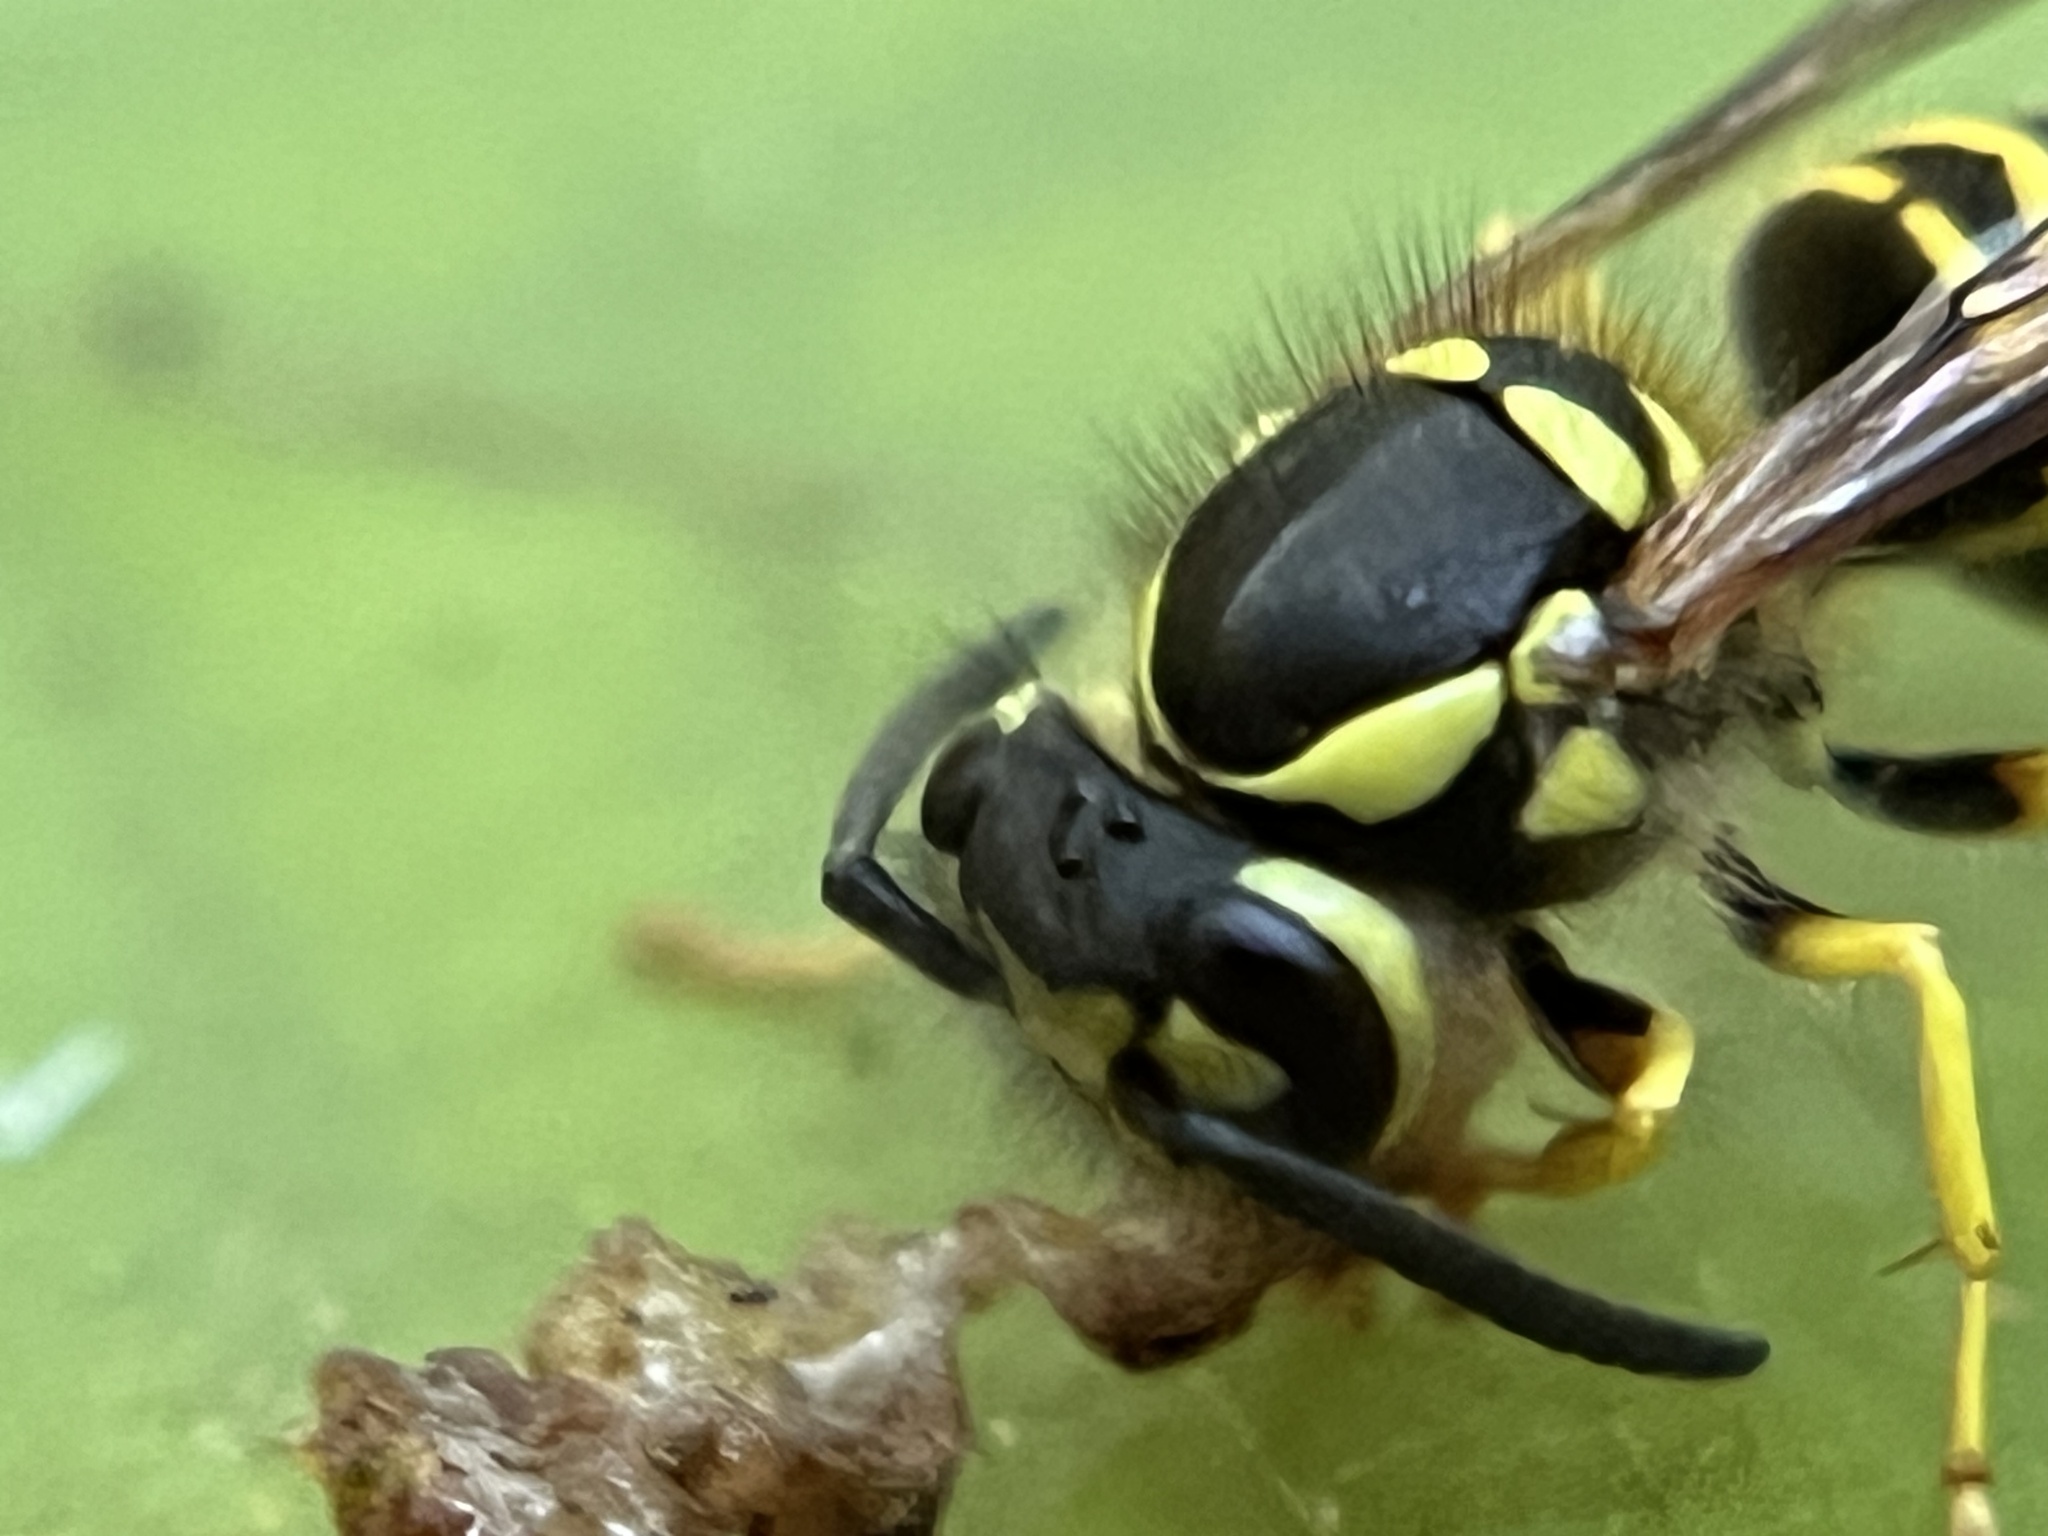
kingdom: Animalia
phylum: Arthropoda
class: Insecta
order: Hymenoptera
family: Vespidae
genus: Vespula
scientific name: Vespula maculifrons
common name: Eastern yellowjacket
